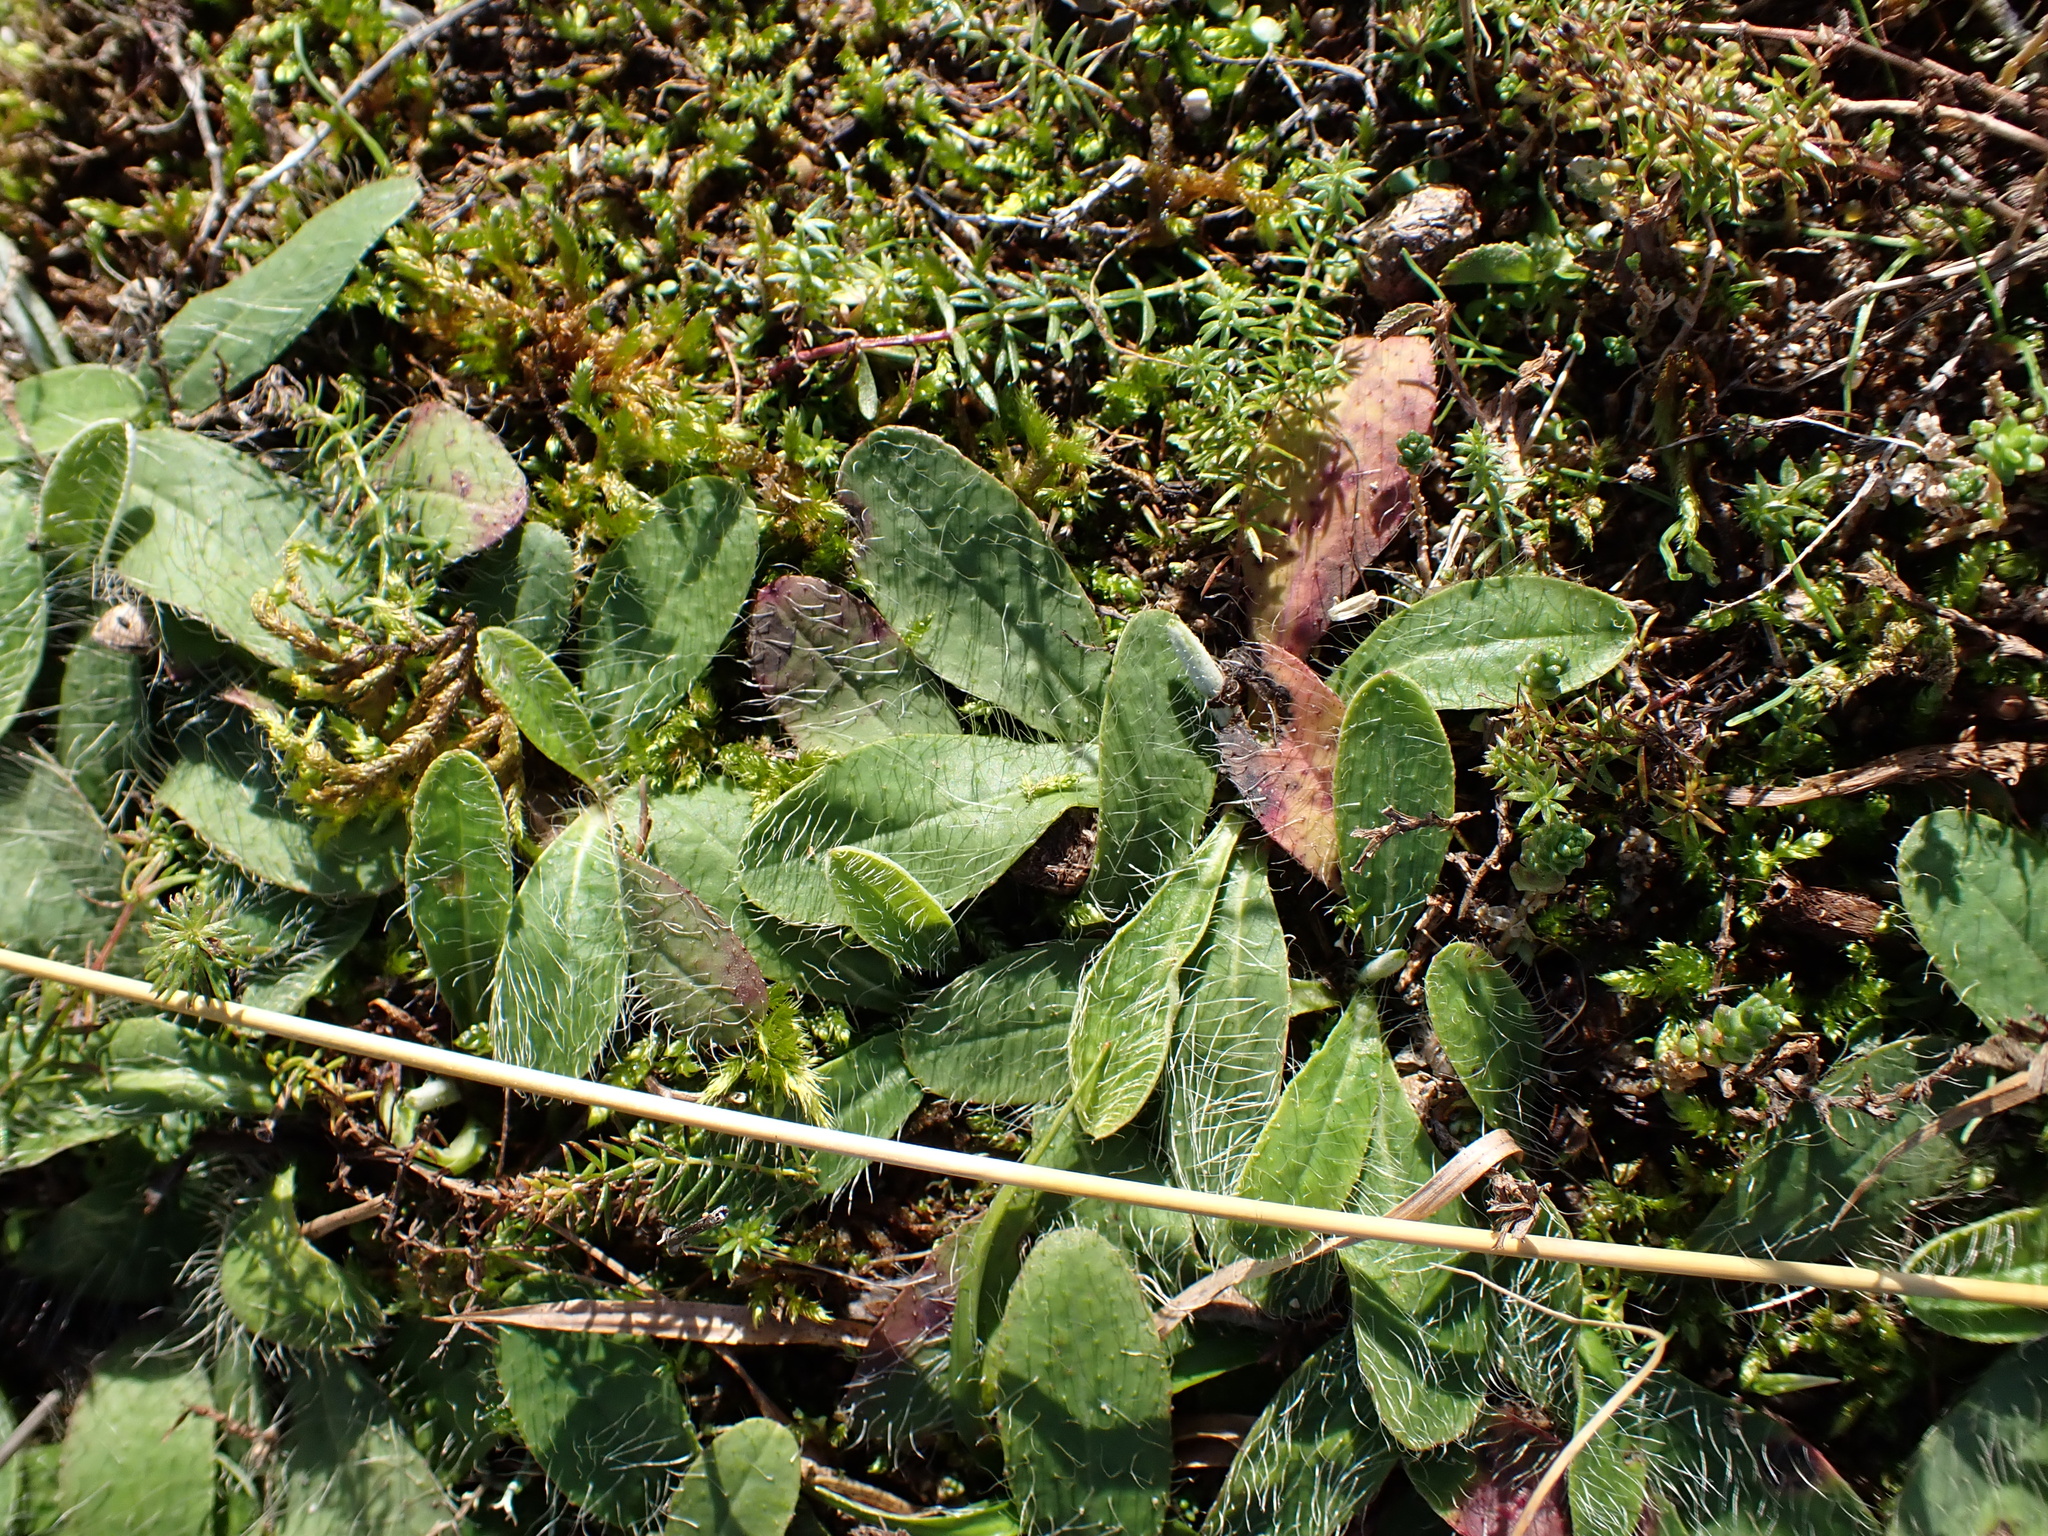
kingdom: Plantae
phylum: Tracheophyta
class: Magnoliopsida
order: Asterales
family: Asteraceae
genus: Pilosella
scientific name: Pilosella officinarum
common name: Mouse-ear hawkweed
